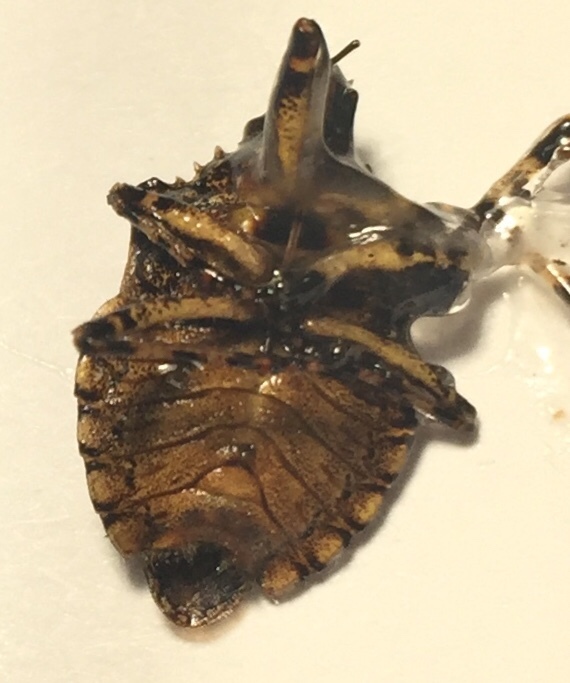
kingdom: Animalia
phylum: Arthropoda
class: Insecta
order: Hemiptera
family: Pentatomidae
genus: Brochymena
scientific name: Brochymena arborea
